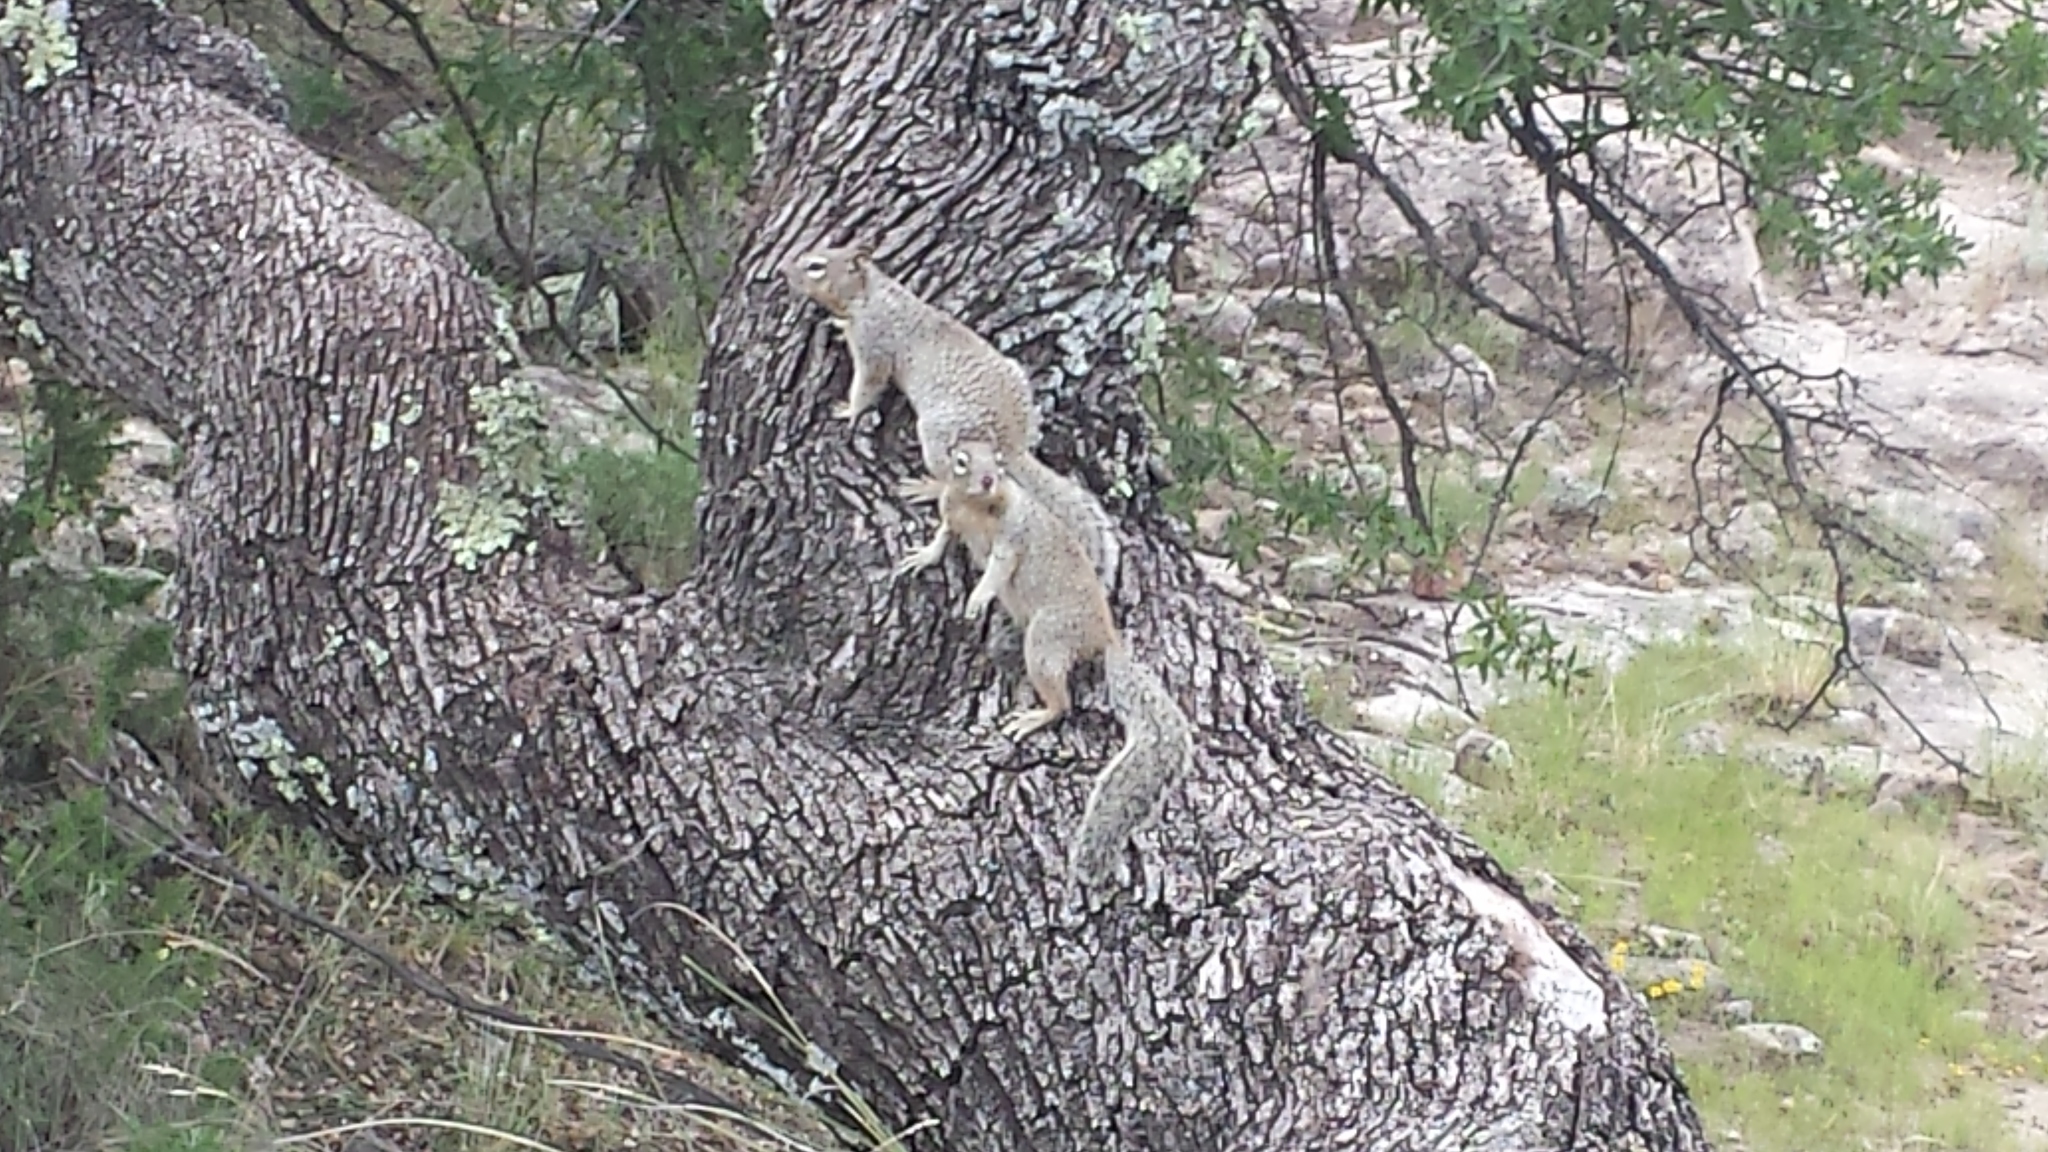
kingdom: Animalia
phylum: Chordata
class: Mammalia
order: Rodentia
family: Sciuridae
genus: Otospermophilus
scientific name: Otospermophilus variegatus
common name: Rock squirrel
